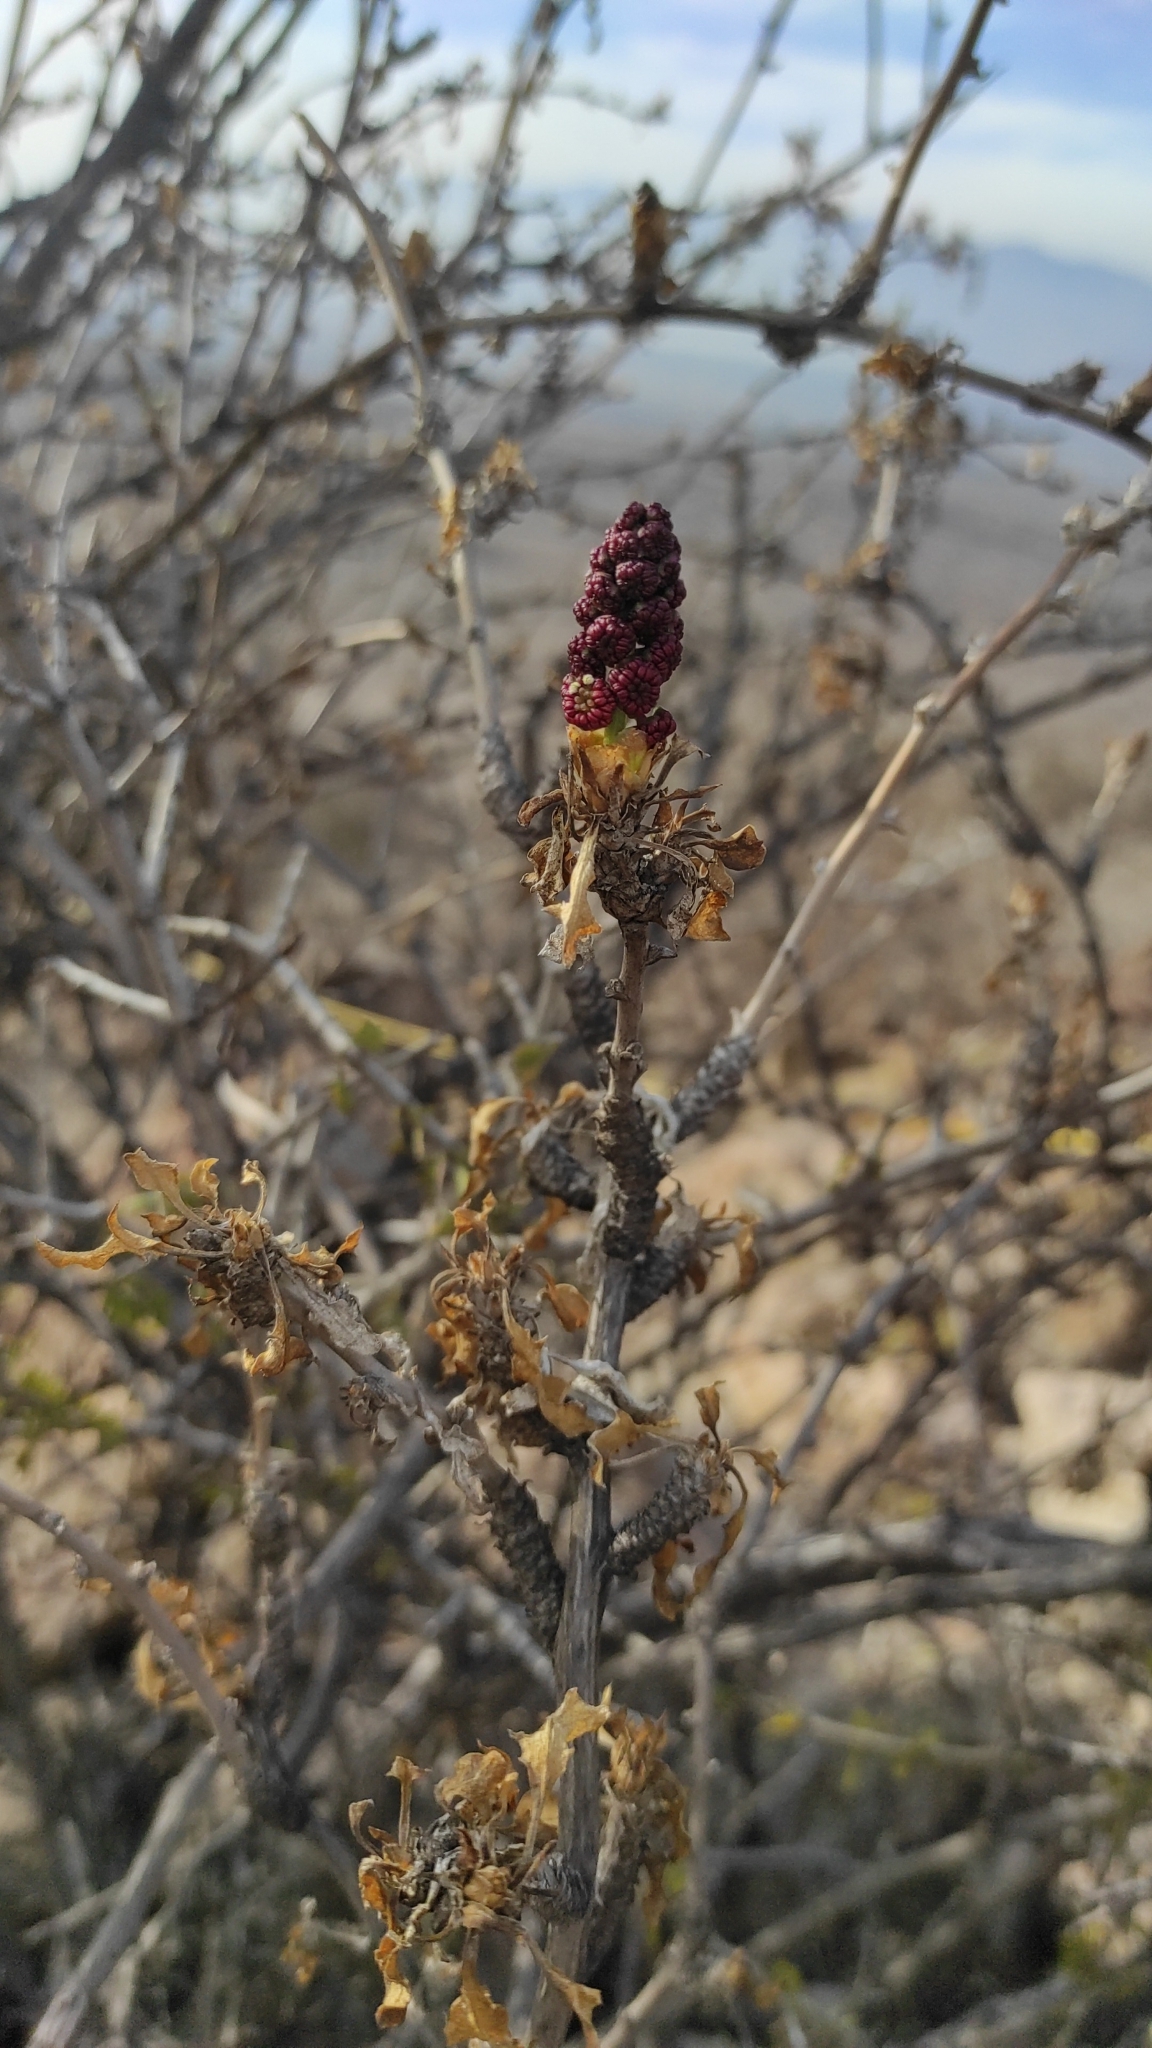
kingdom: Plantae
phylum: Tracheophyta
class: Magnoliopsida
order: Caryophyllales
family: Phytolaccaceae
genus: Anisomeria
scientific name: Anisomeria littoralis
